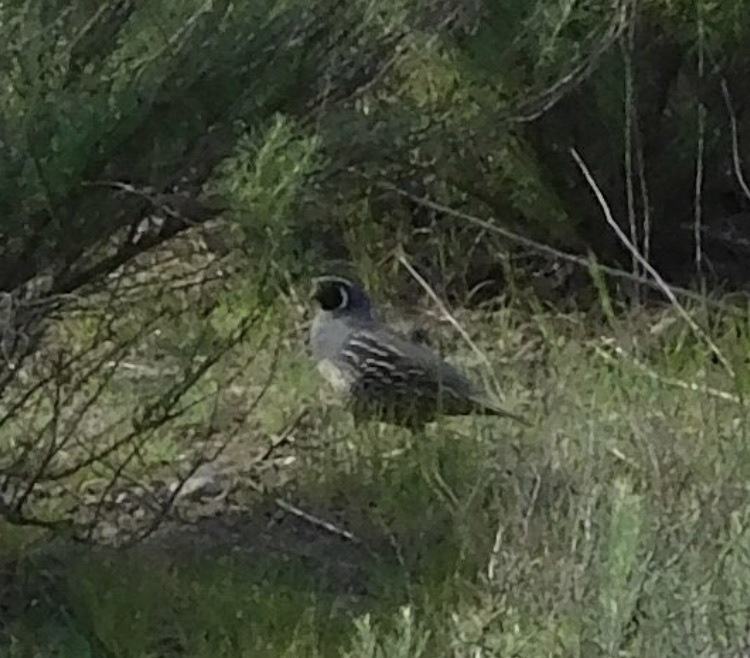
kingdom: Animalia
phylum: Chordata
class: Aves
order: Galliformes
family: Odontophoridae
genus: Callipepla
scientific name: Callipepla californica
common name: California quail
